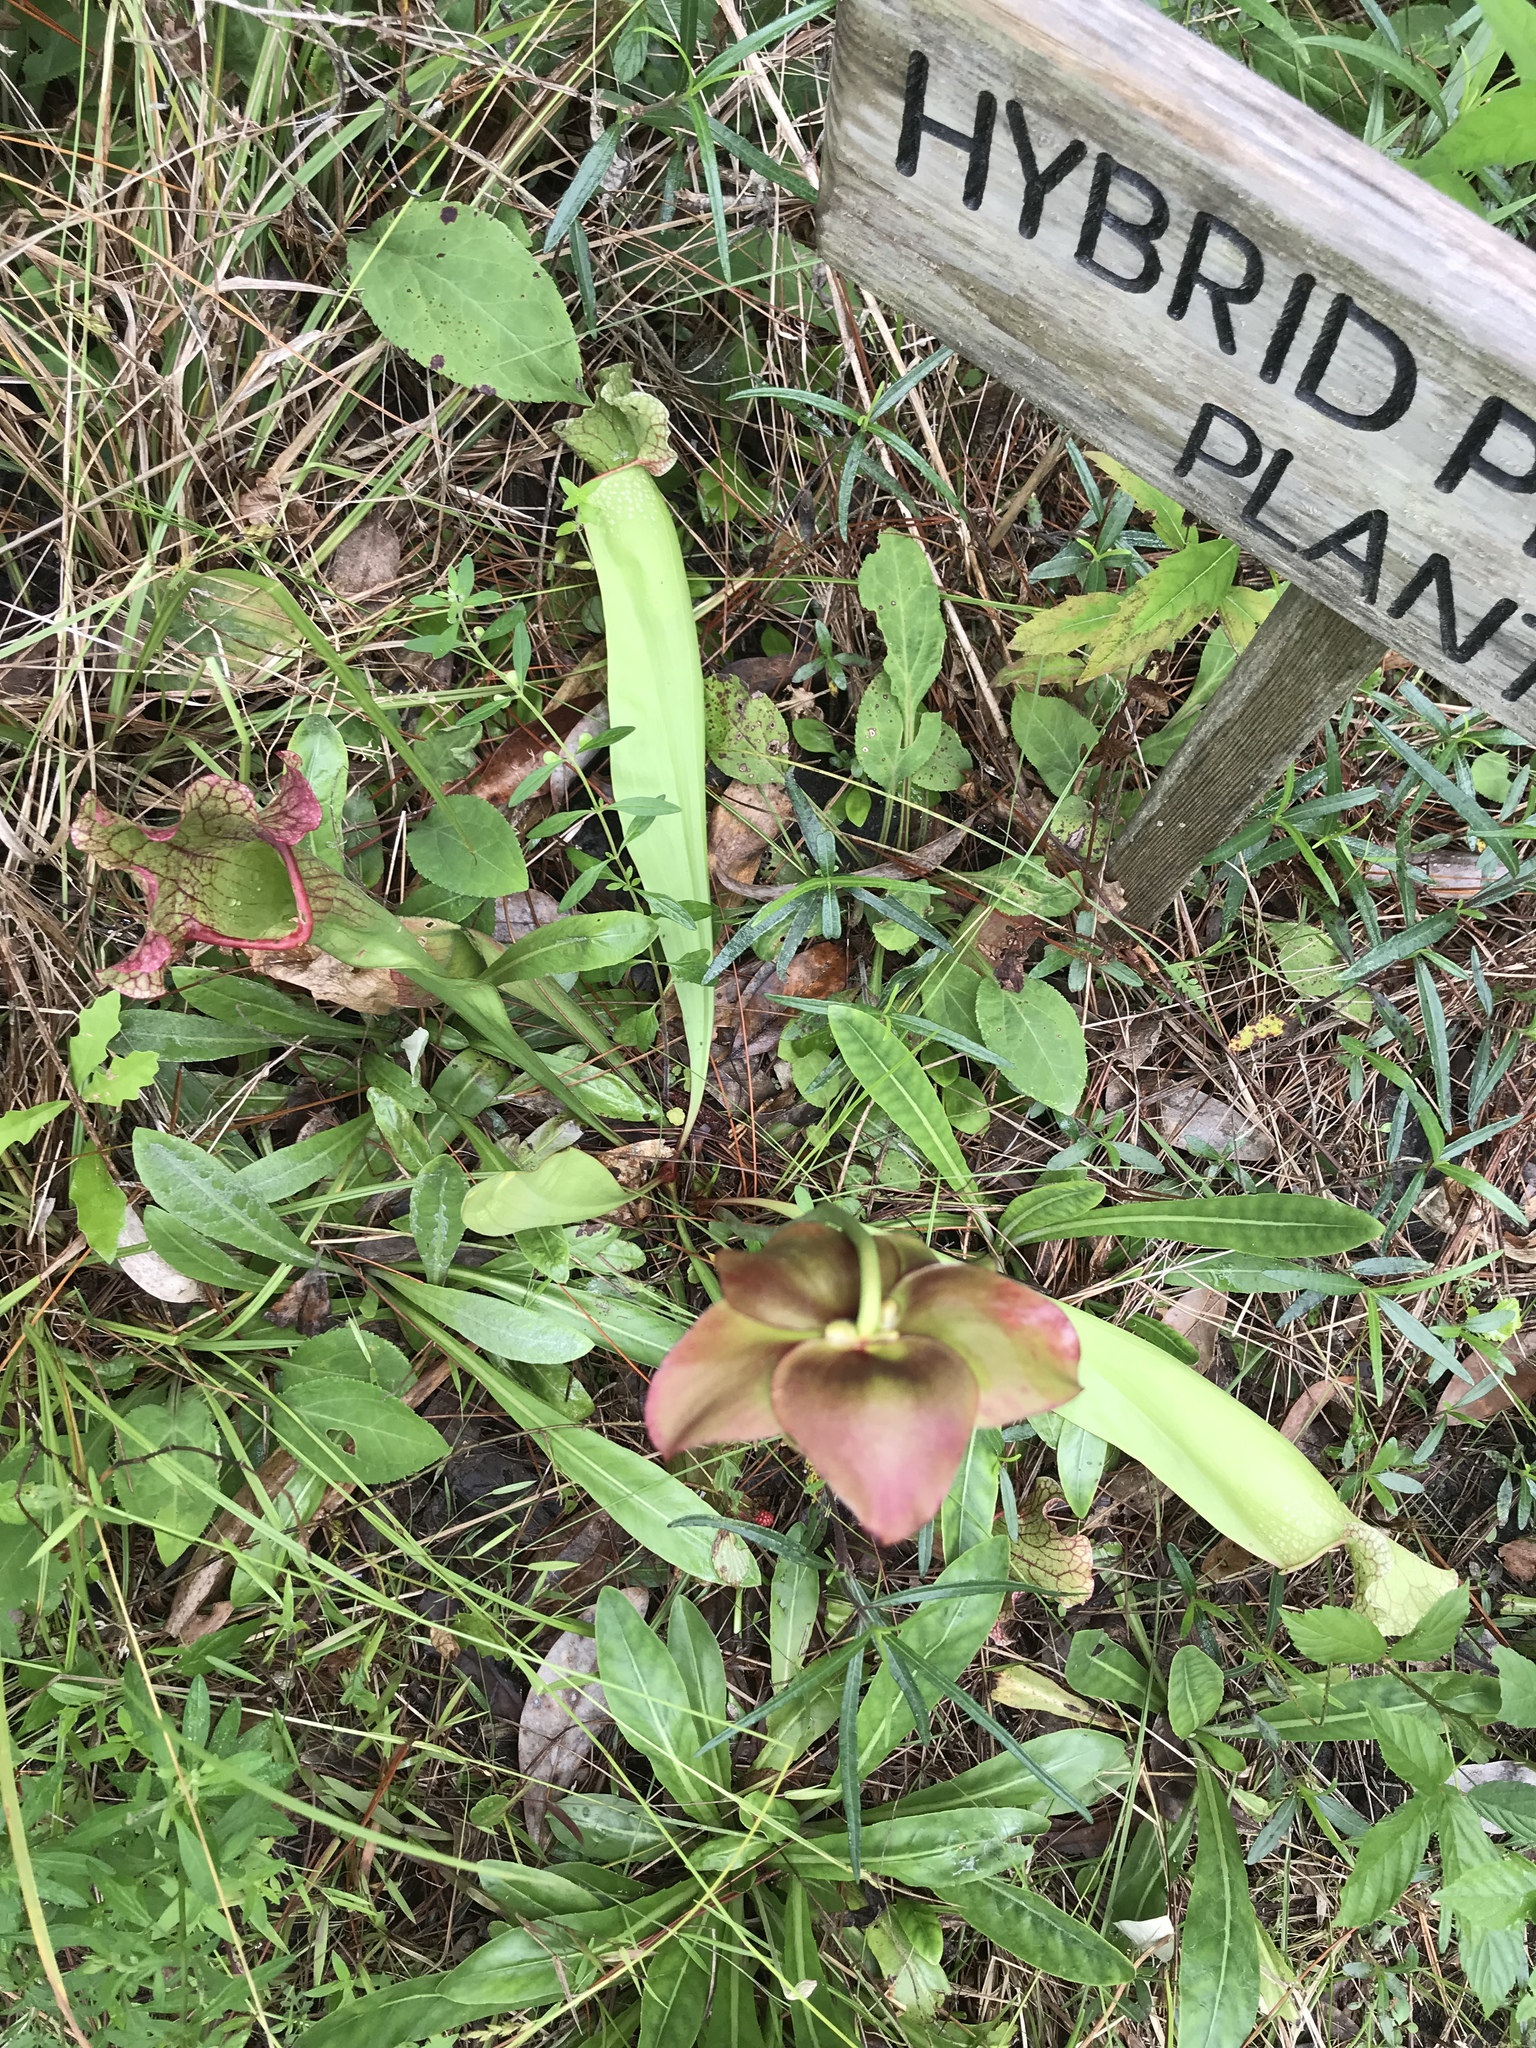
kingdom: Plantae
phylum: Tracheophyta
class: Magnoliopsida
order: Ericales
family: Sarraceniaceae
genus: Sarracenia
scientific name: Sarracenia mitchelliana
